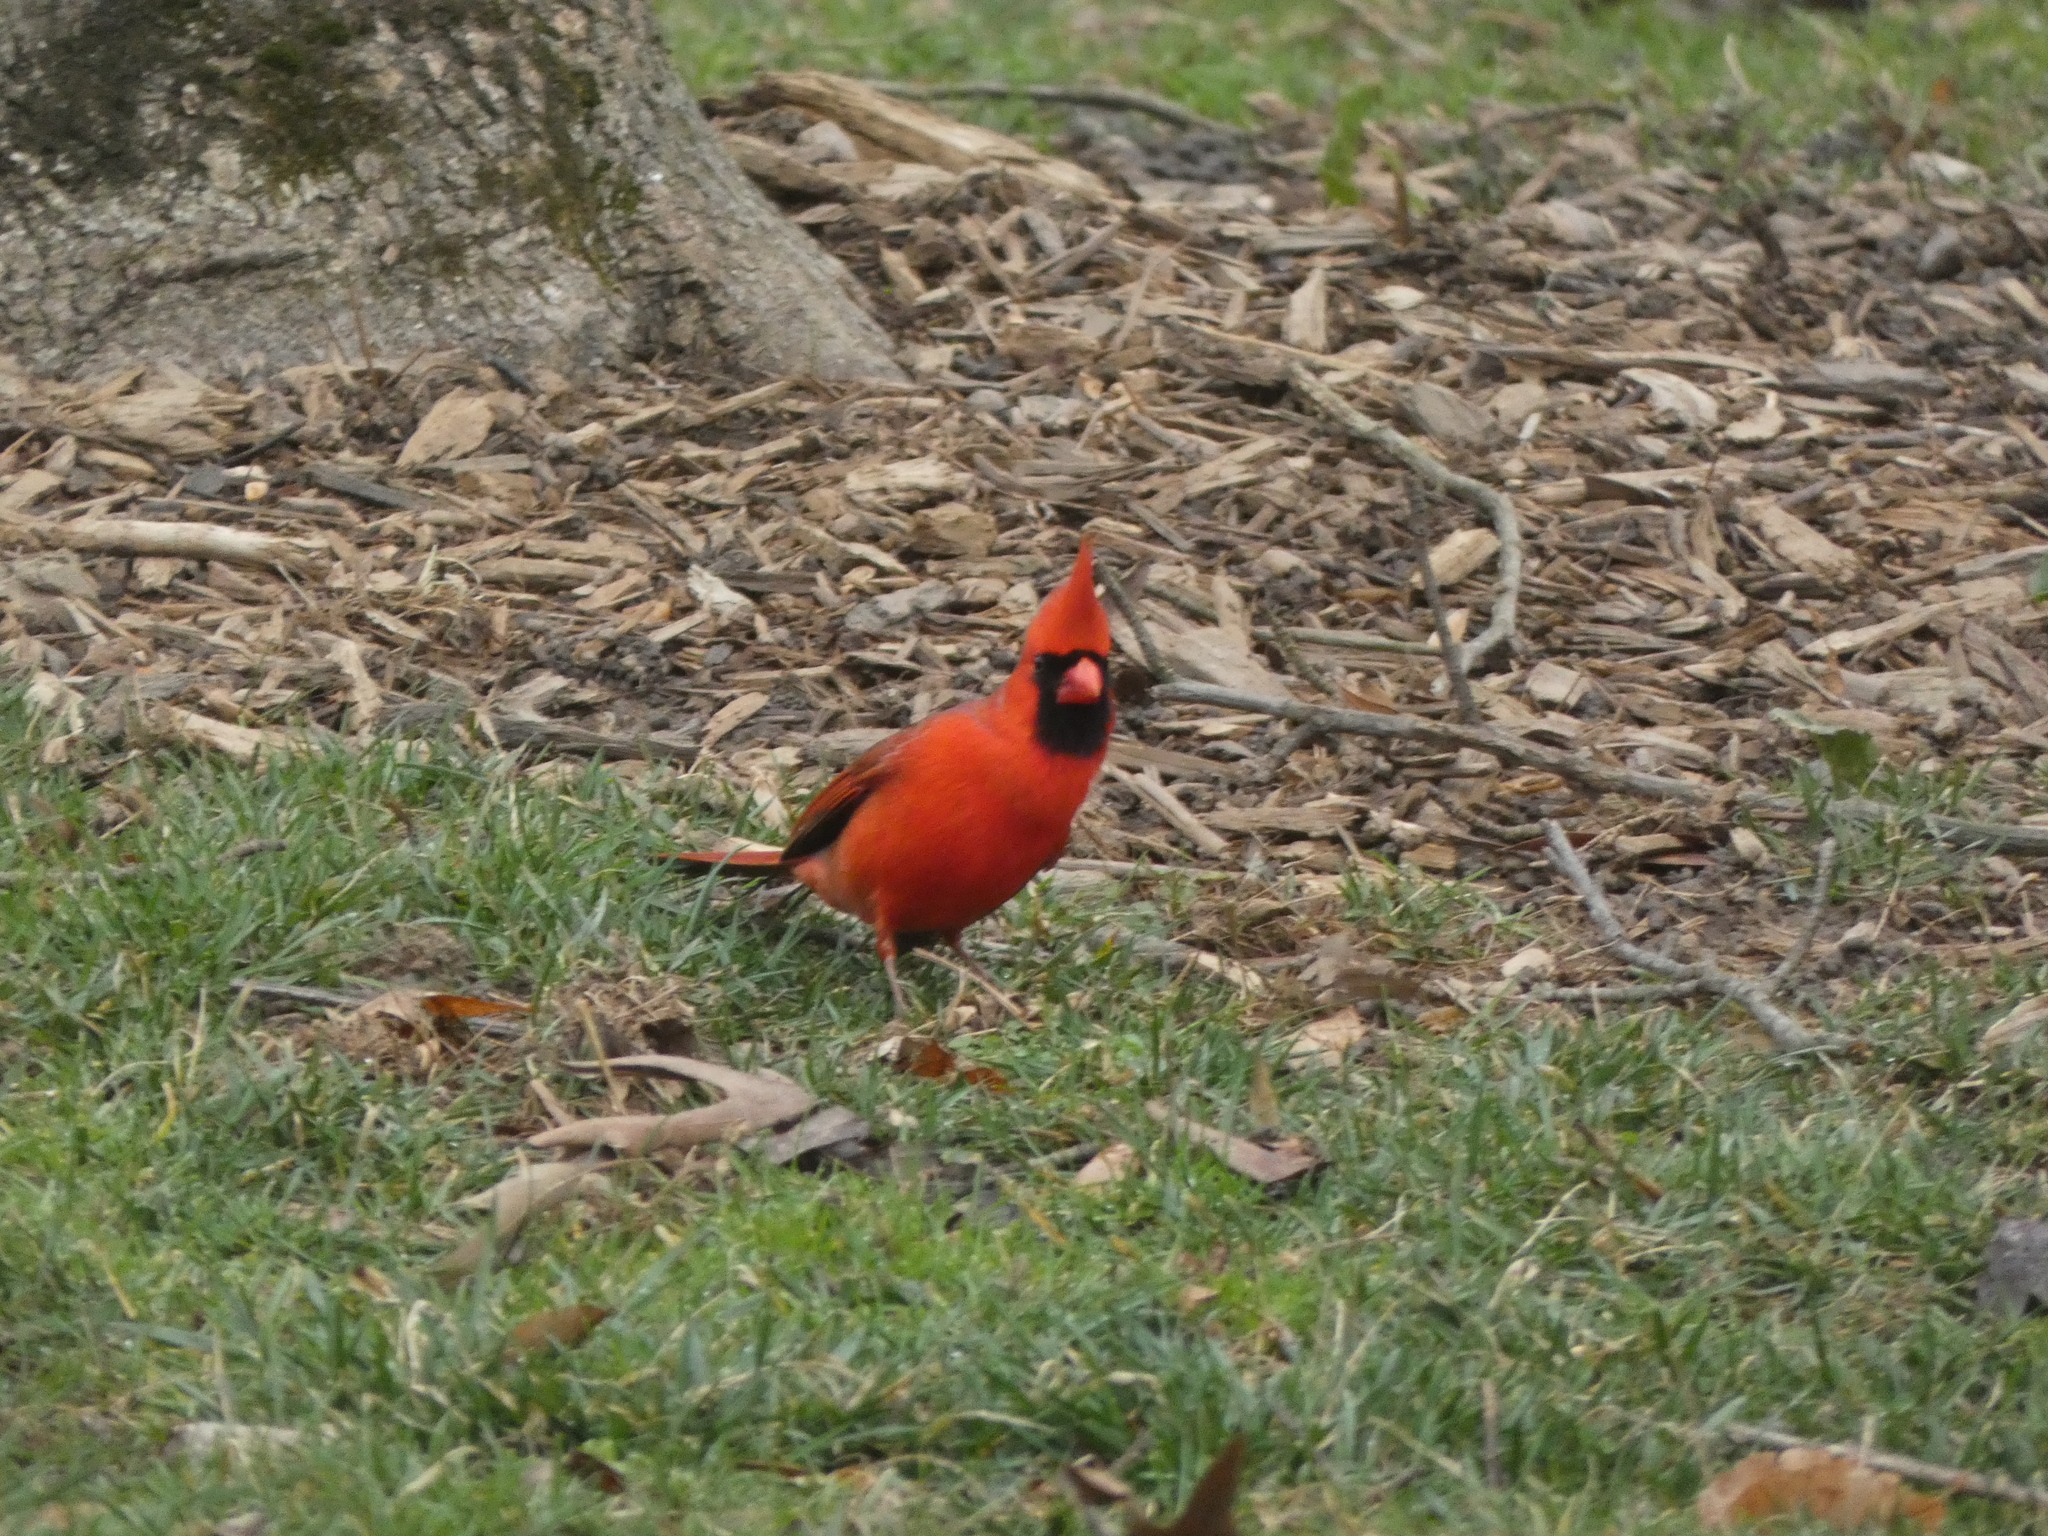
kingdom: Animalia
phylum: Chordata
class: Aves
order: Passeriformes
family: Cardinalidae
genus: Cardinalis
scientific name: Cardinalis cardinalis
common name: Northern cardinal
